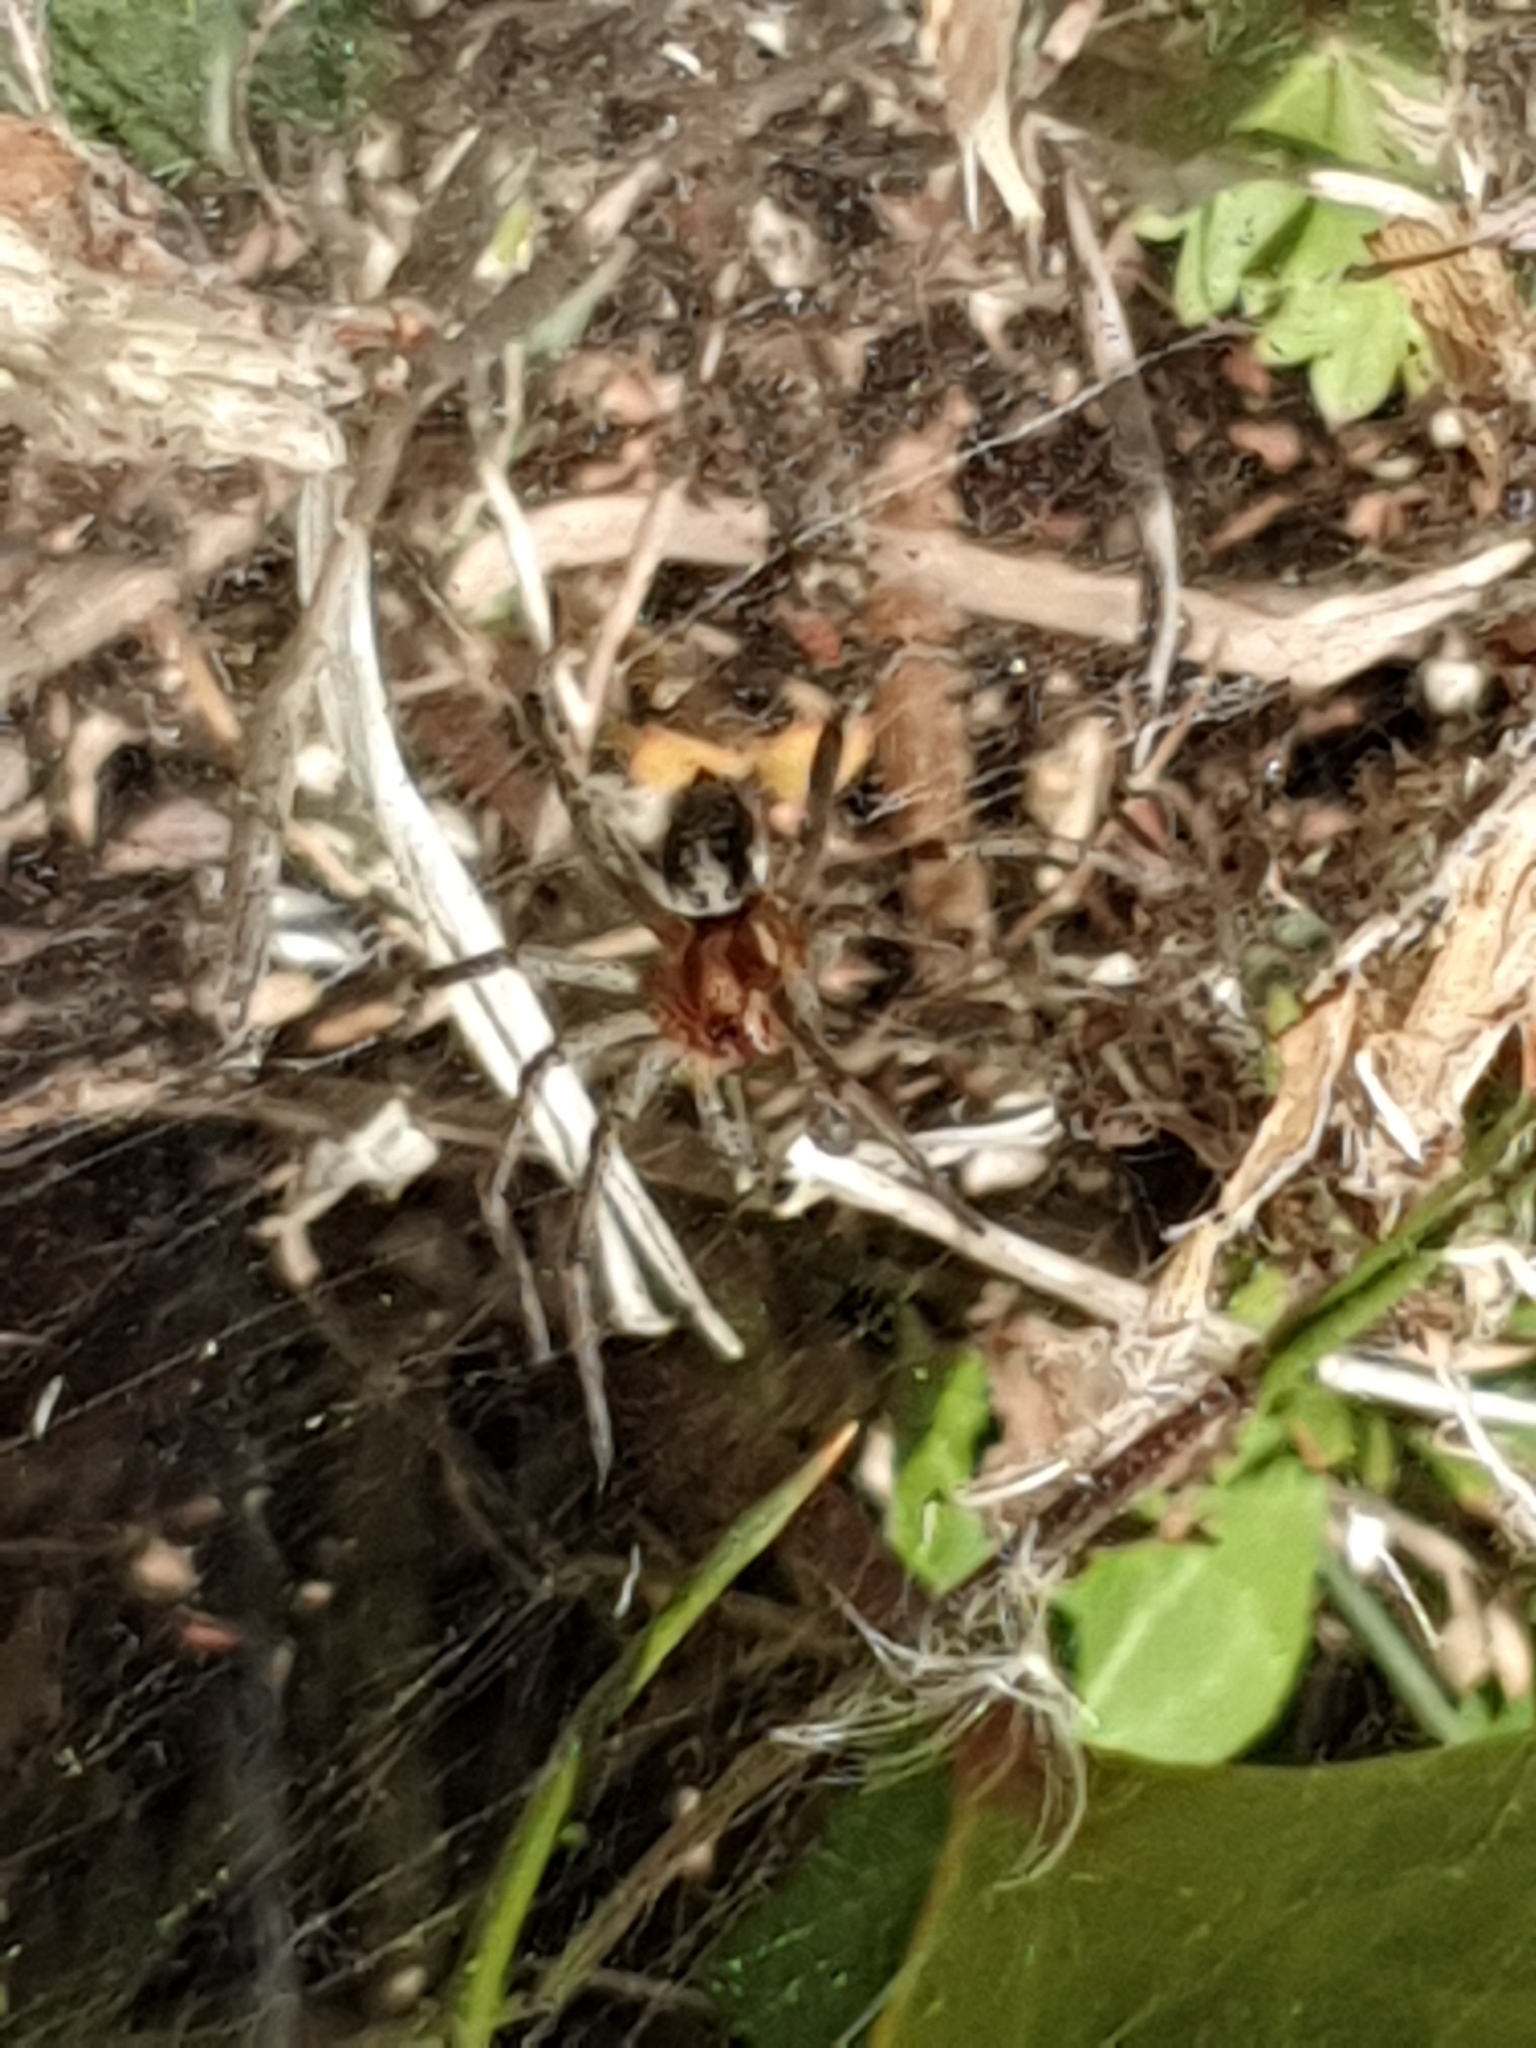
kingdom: Animalia
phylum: Arthropoda
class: Arachnida
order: Araneae
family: Agelenidae
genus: Agelena
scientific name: Agelena labyrinthica
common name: Labyrinth spider
